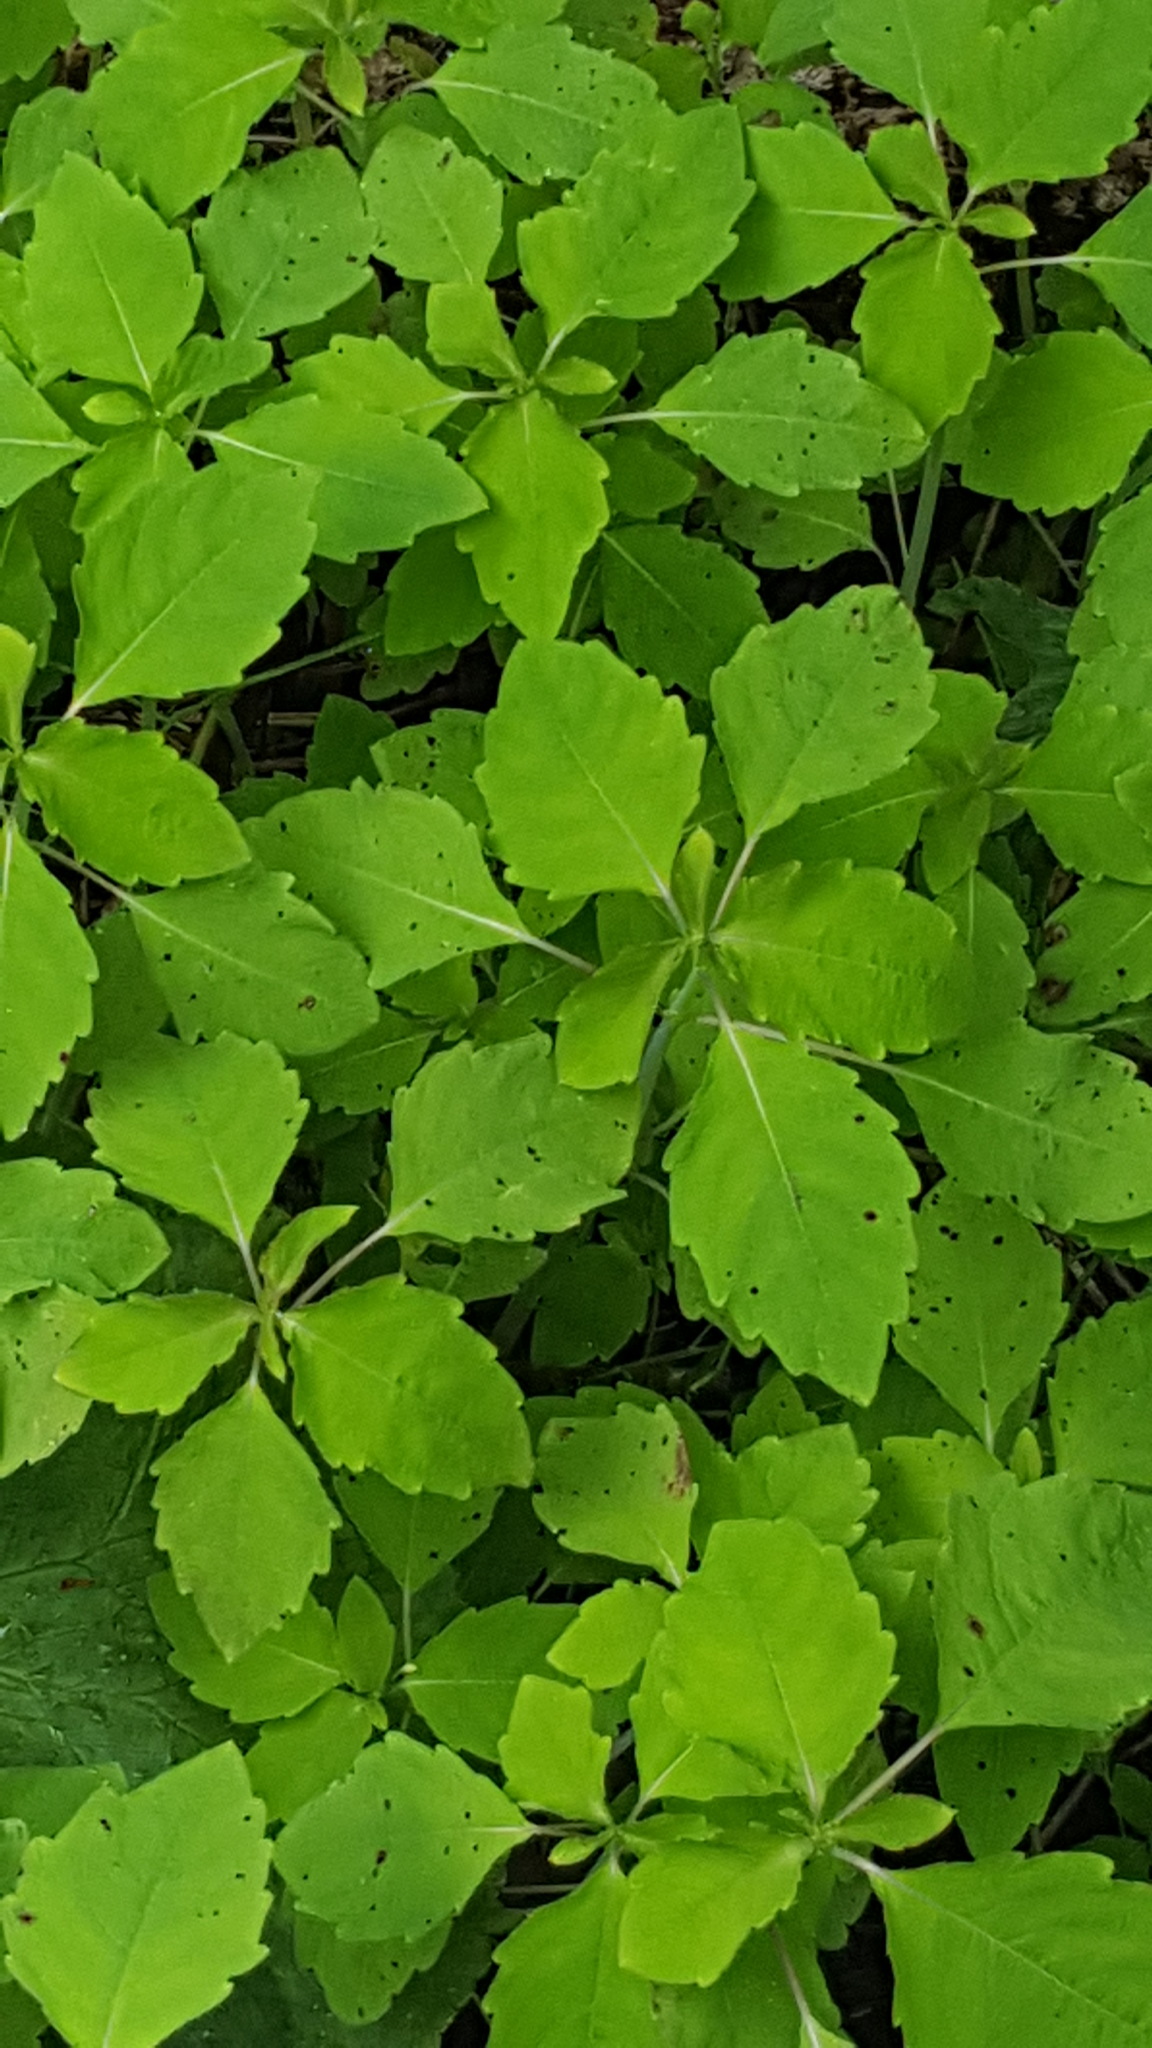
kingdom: Plantae
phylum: Tracheophyta
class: Magnoliopsida
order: Ericales
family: Balsaminaceae
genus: Impatiens
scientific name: Impatiens capensis
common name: Orange balsam
